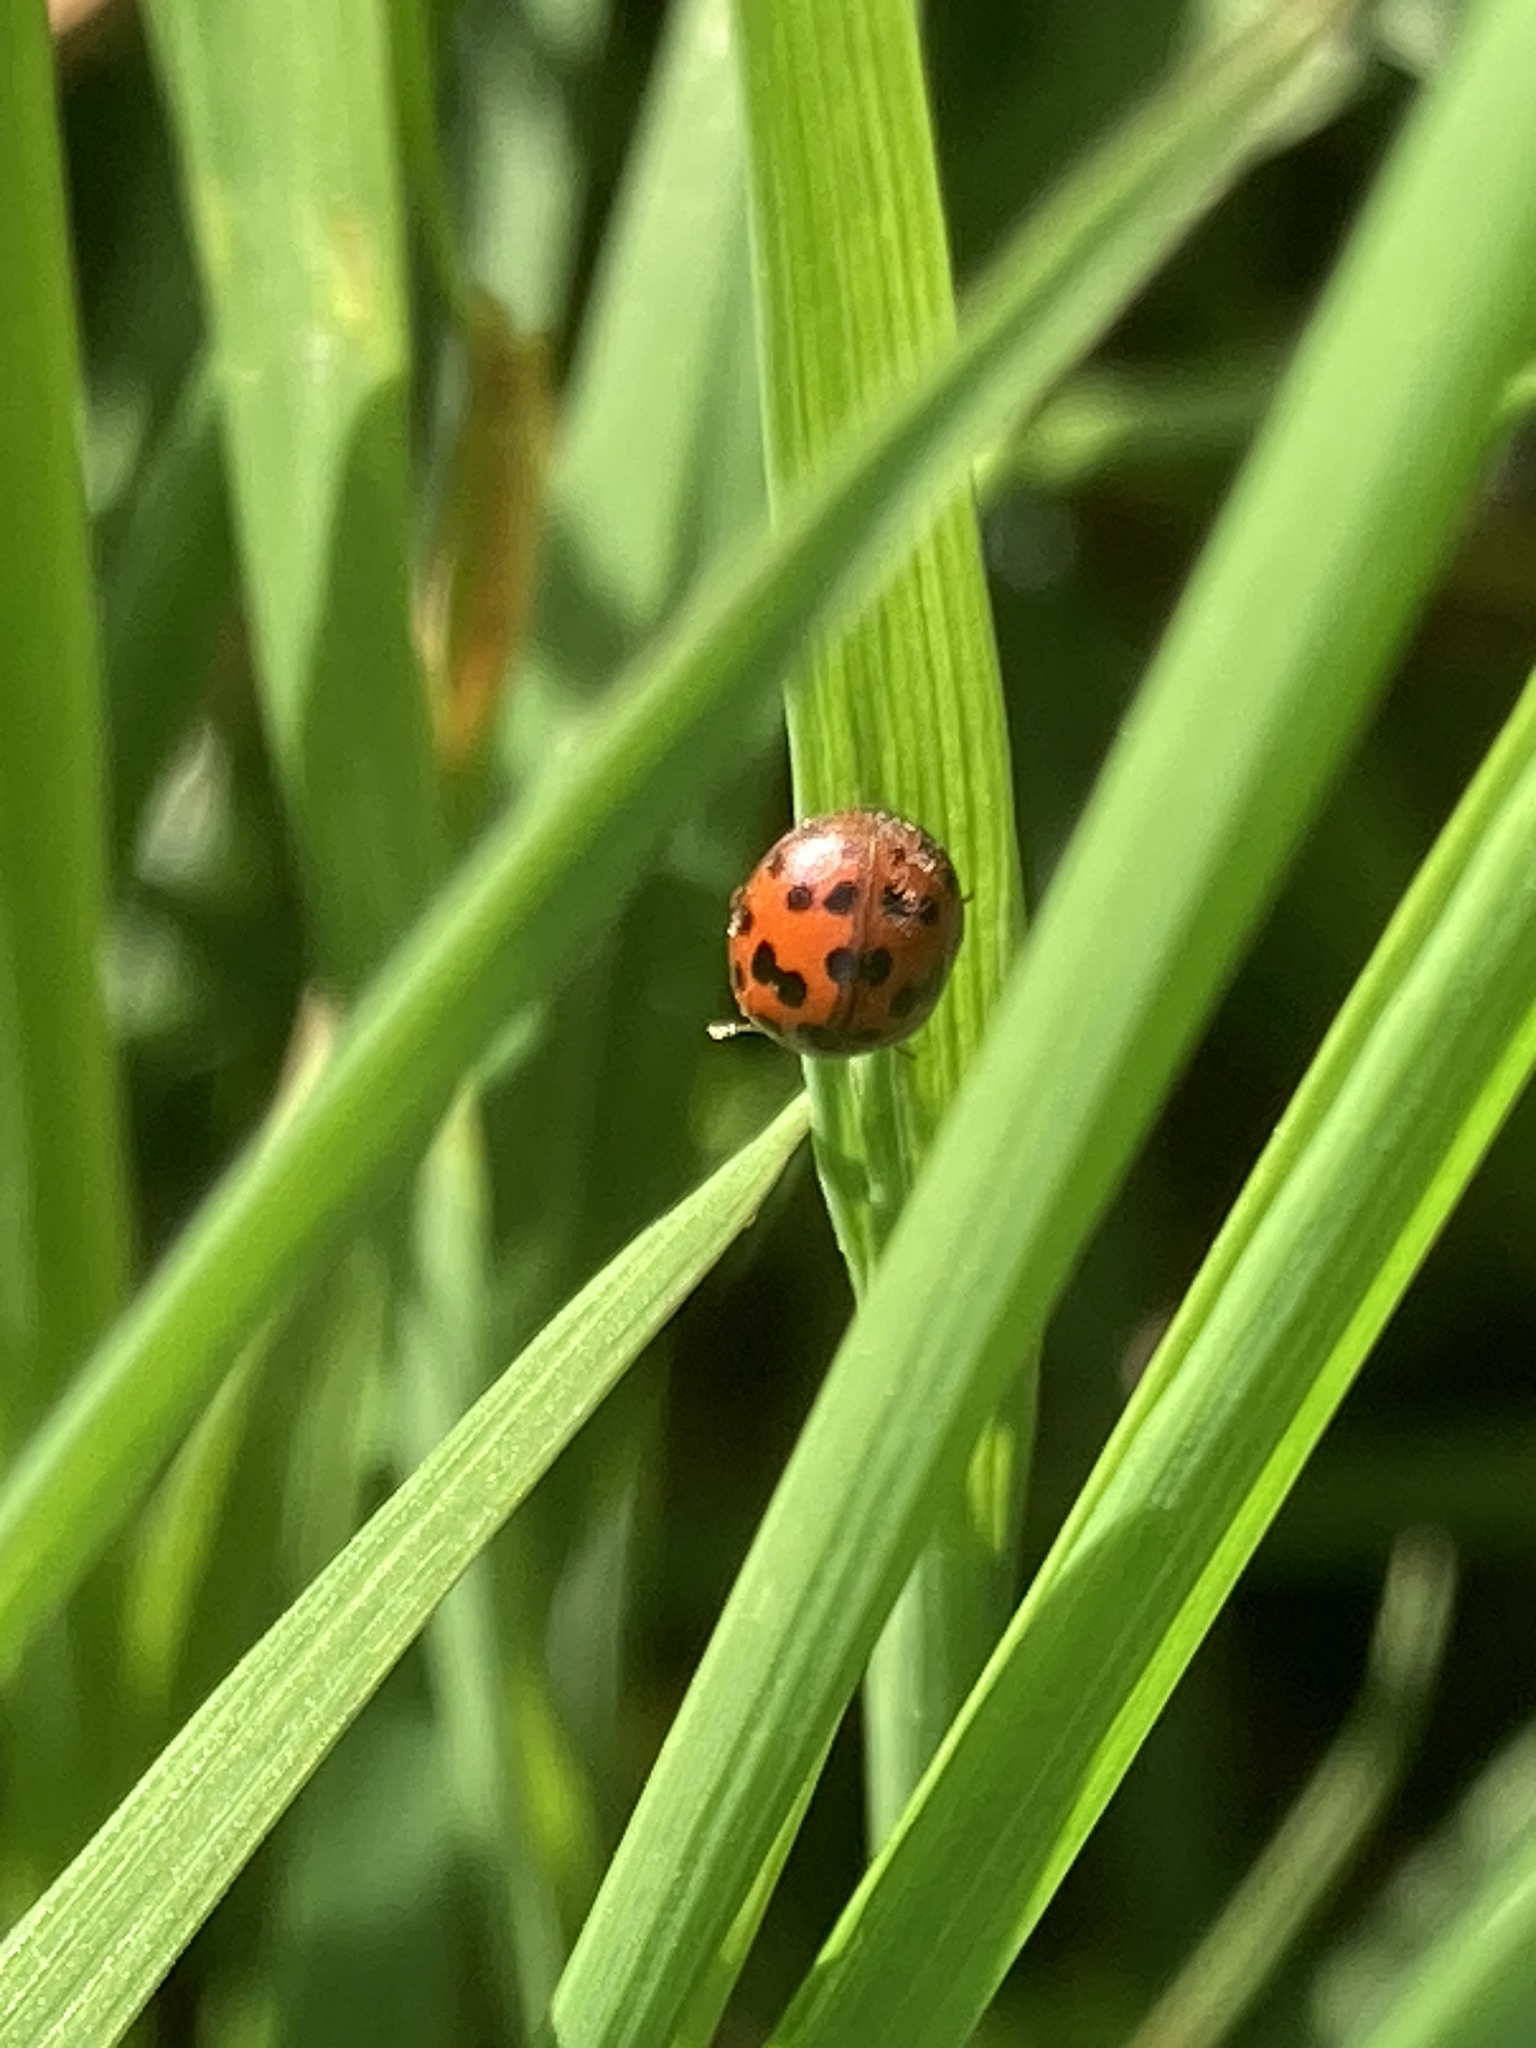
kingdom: Animalia
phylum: Arthropoda
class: Insecta
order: Coleoptera
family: Coccinellidae
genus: Subcoccinella
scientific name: Subcoccinella vigintiquatuorpunctata
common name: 24-spot ladybird
